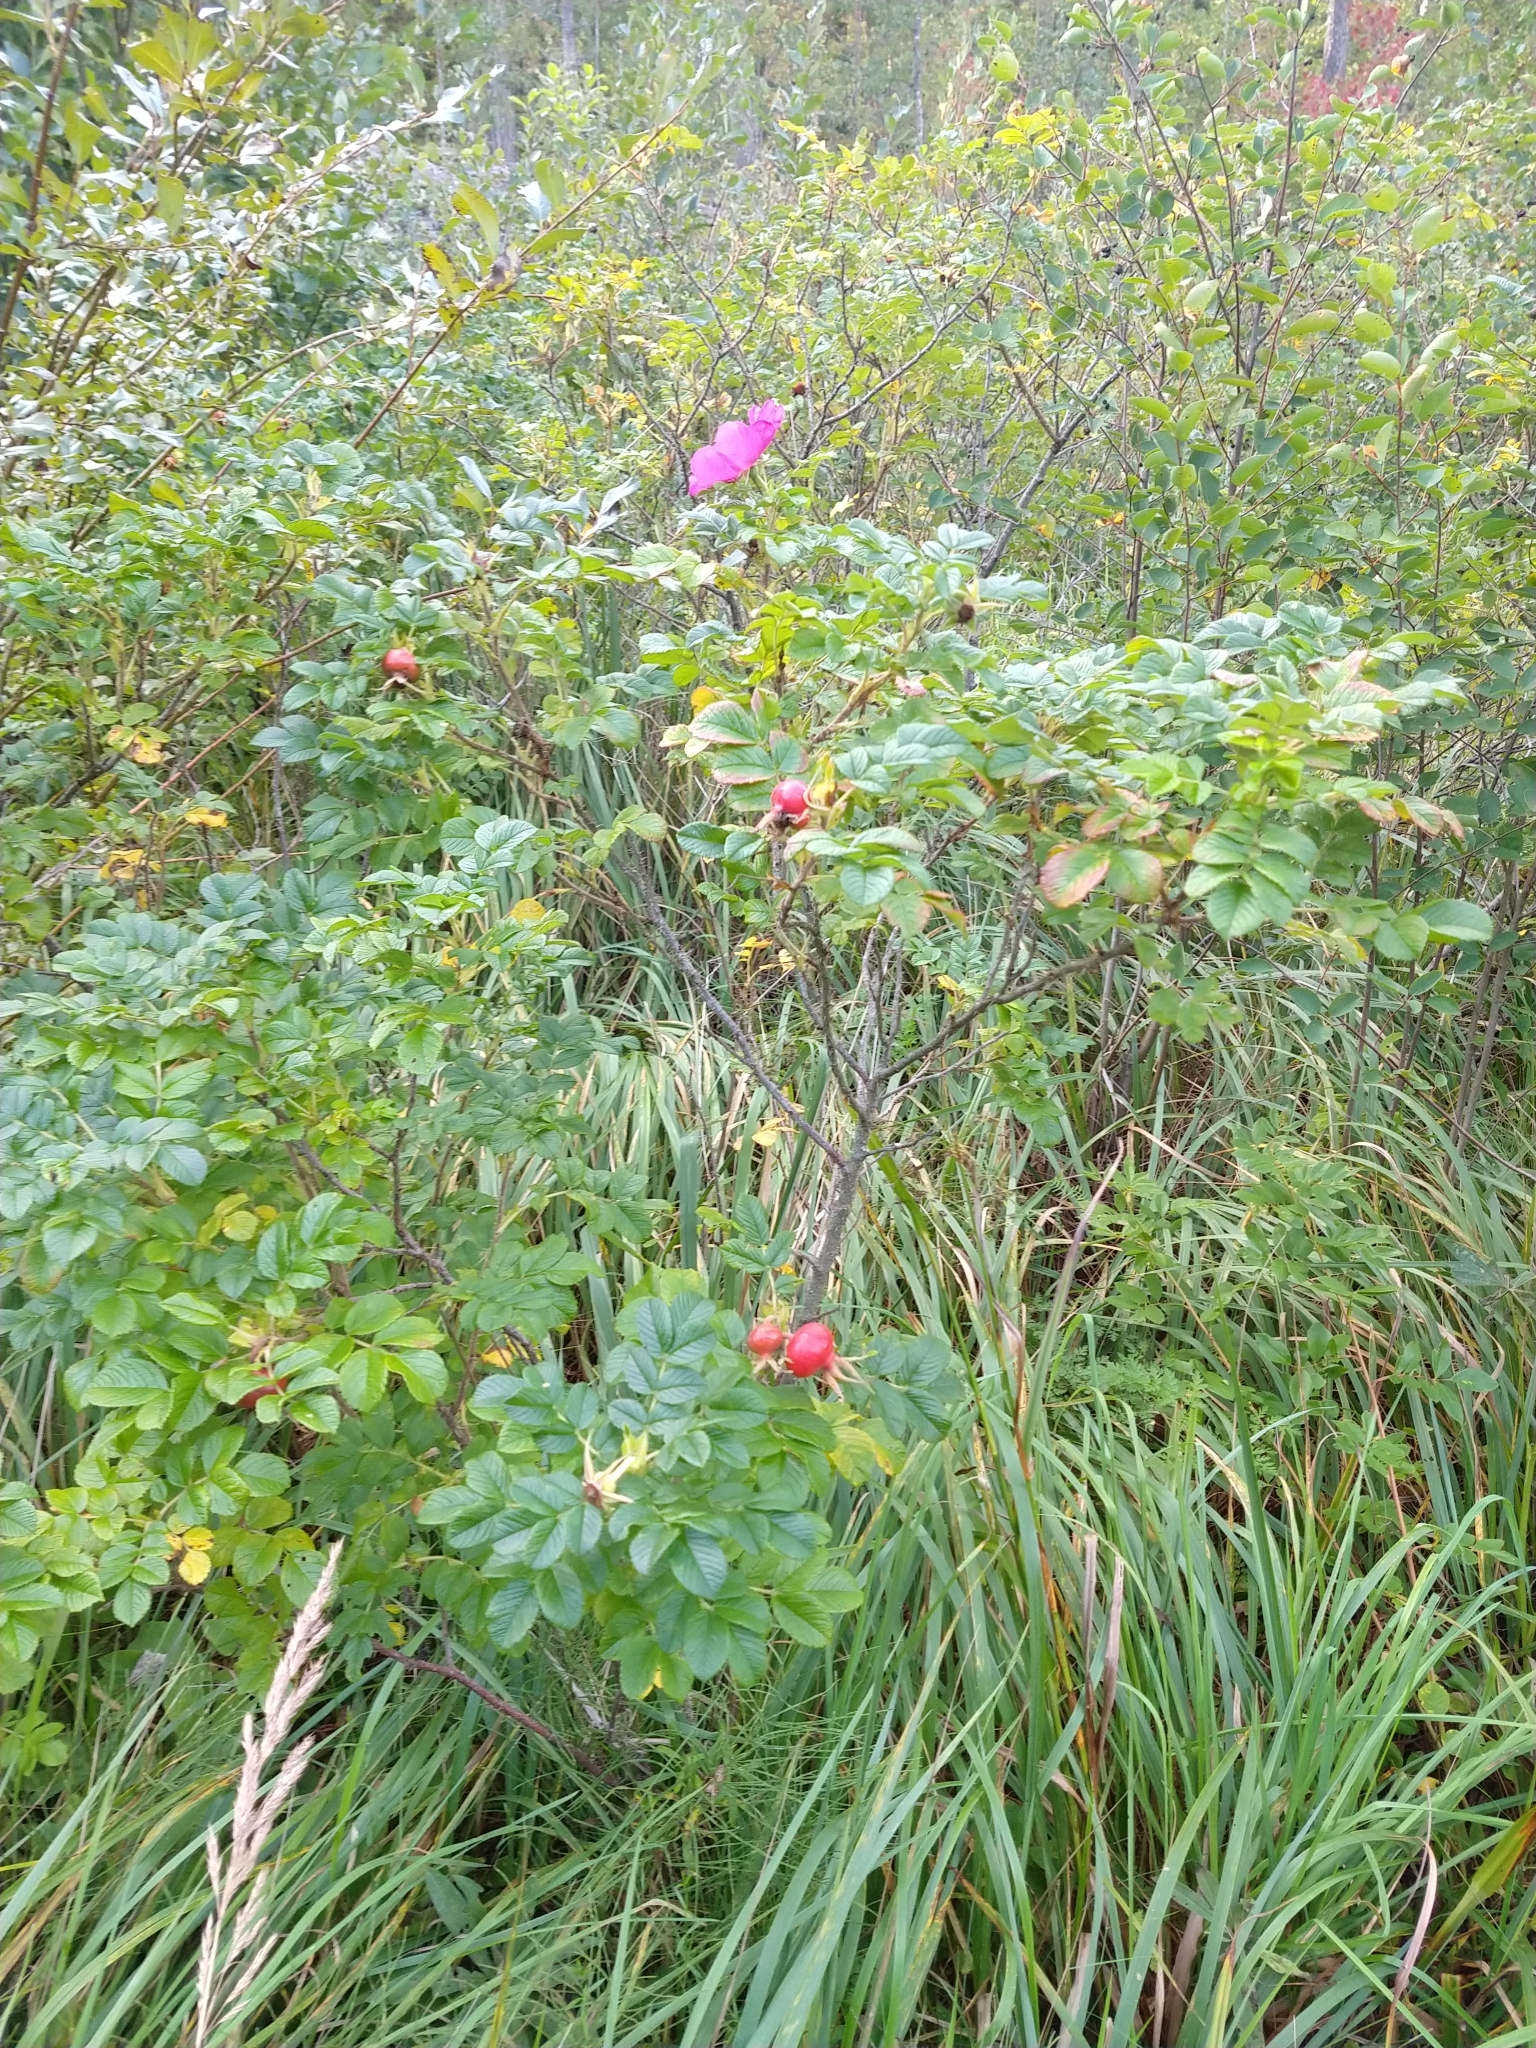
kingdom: Plantae
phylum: Tracheophyta
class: Magnoliopsida
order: Rosales
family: Rosaceae
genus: Rosa
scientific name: Rosa rugosa
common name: Japanese rose
